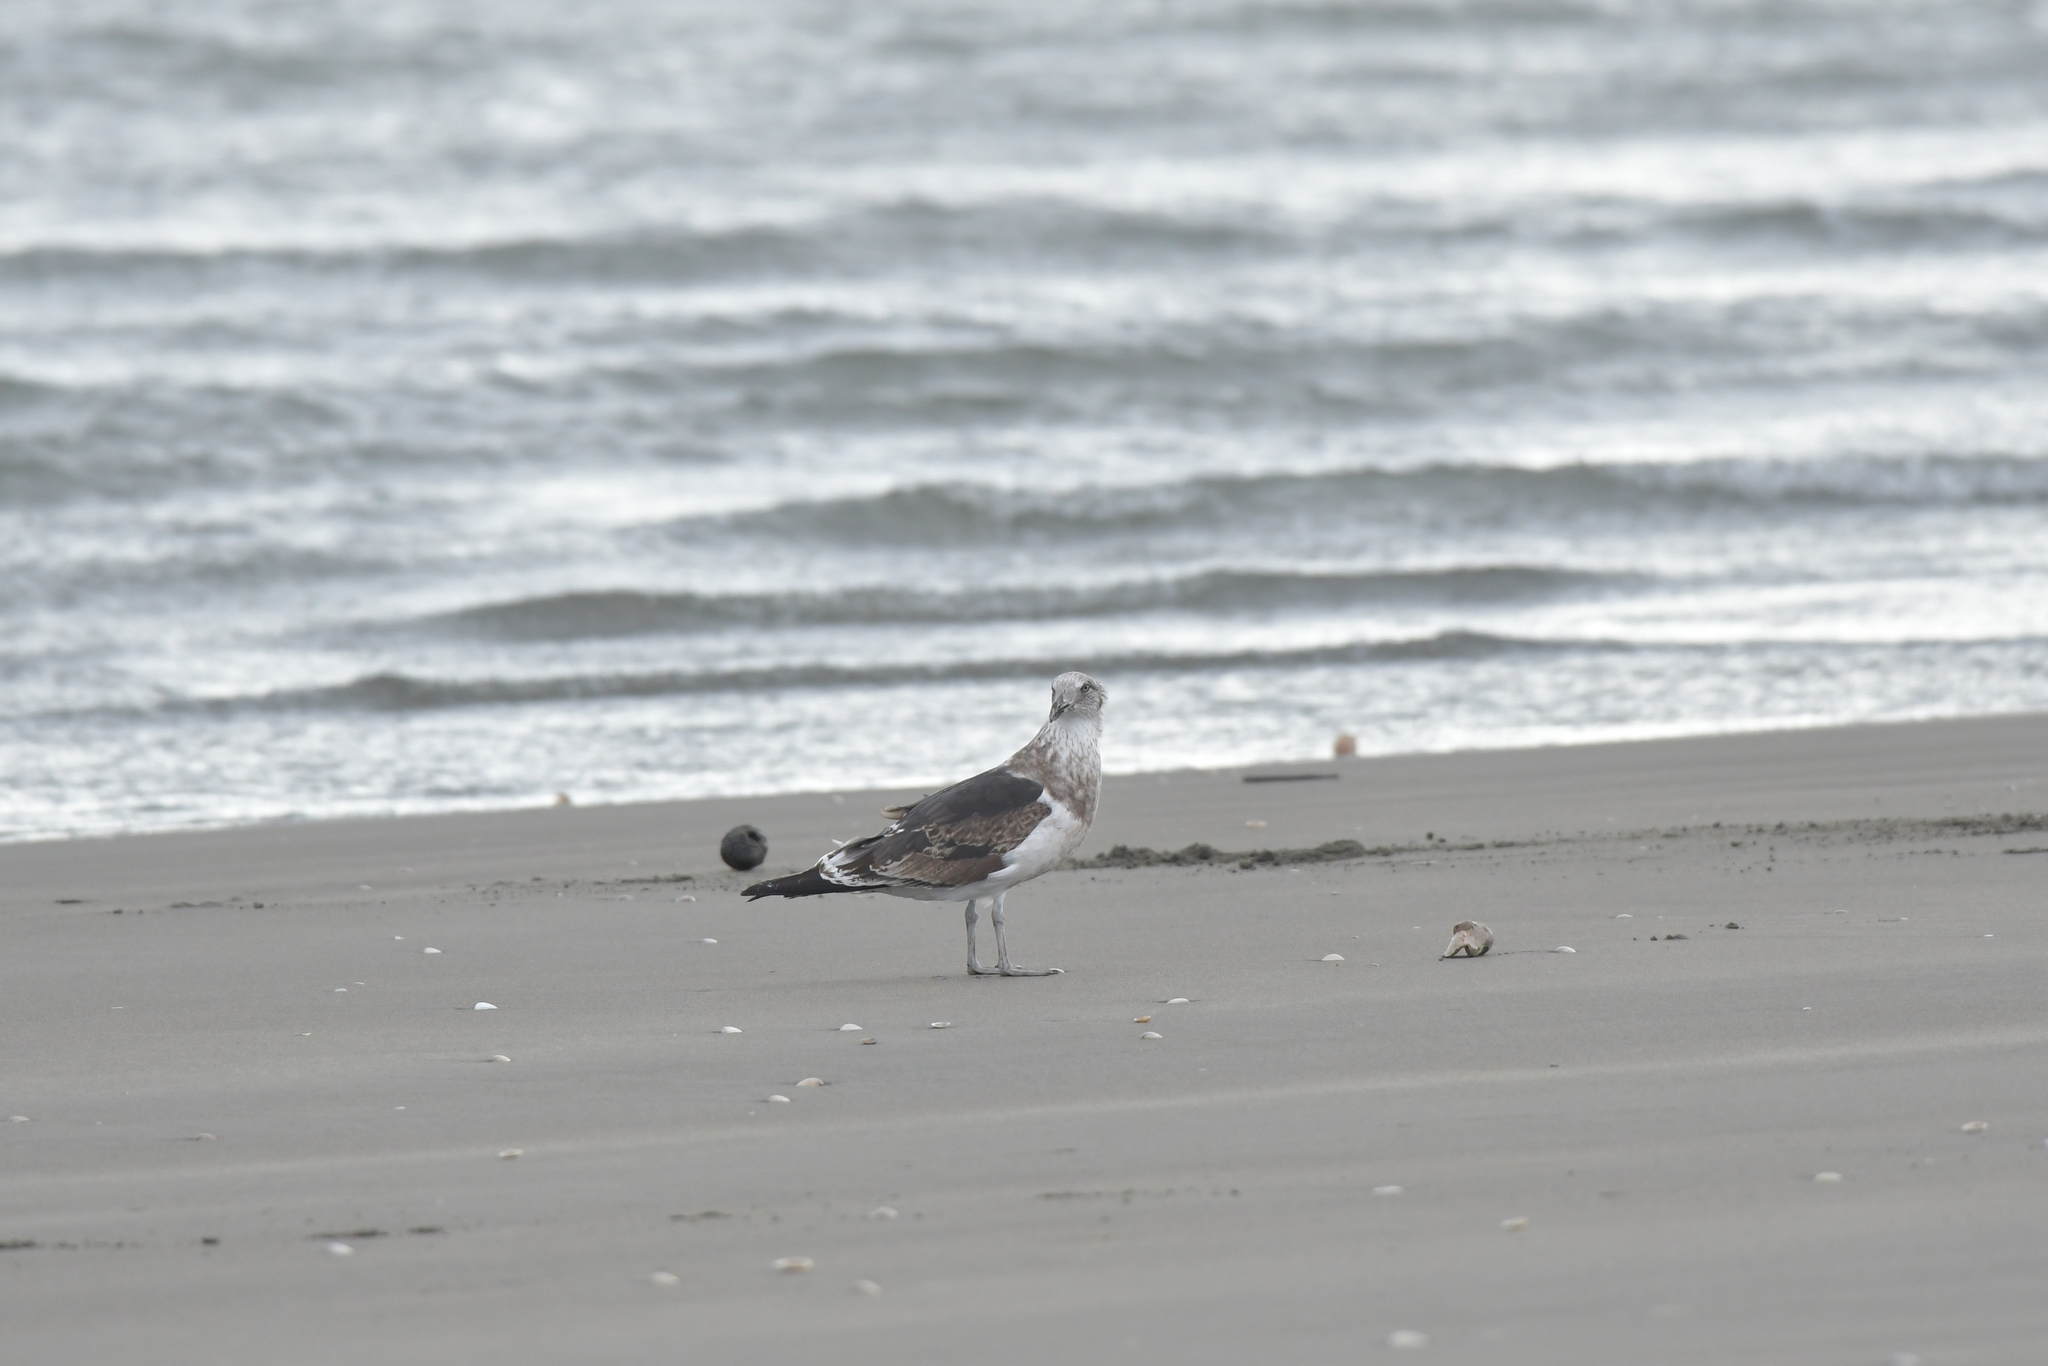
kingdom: Animalia
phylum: Chordata
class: Aves
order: Charadriiformes
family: Laridae
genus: Larus
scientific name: Larus dominicanus
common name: Kelp gull
